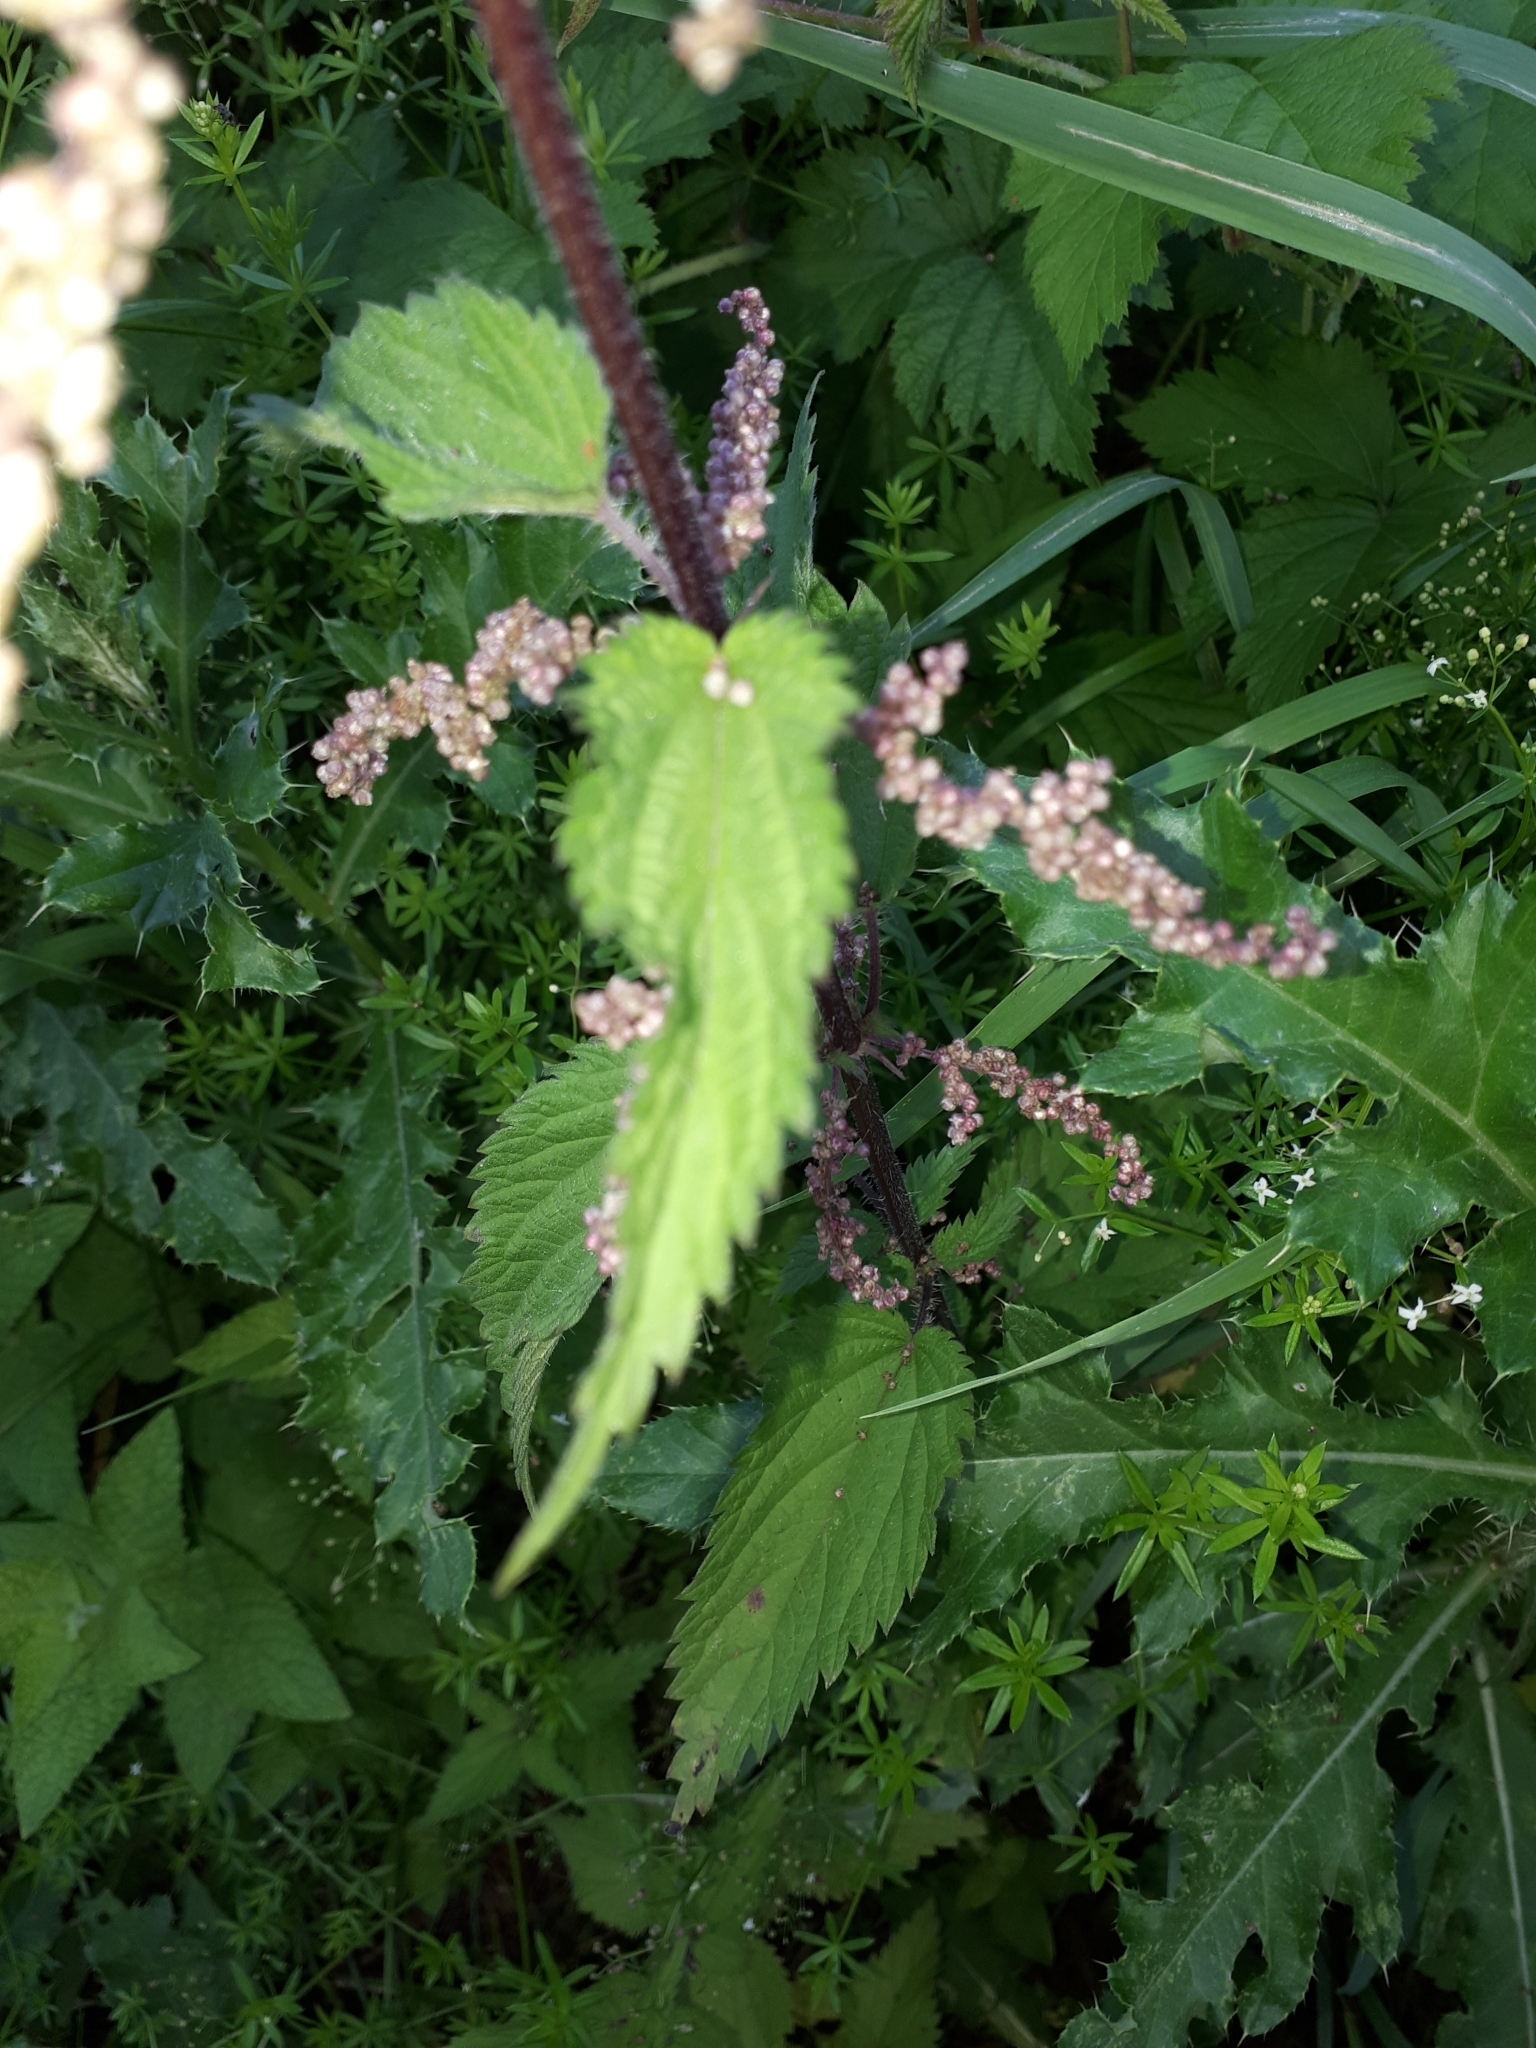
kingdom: Plantae
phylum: Tracheophyta
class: Magnoliopsida
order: Rosales
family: Urticaceae
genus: Urtica
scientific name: Urtica dioica
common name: Common nettle
